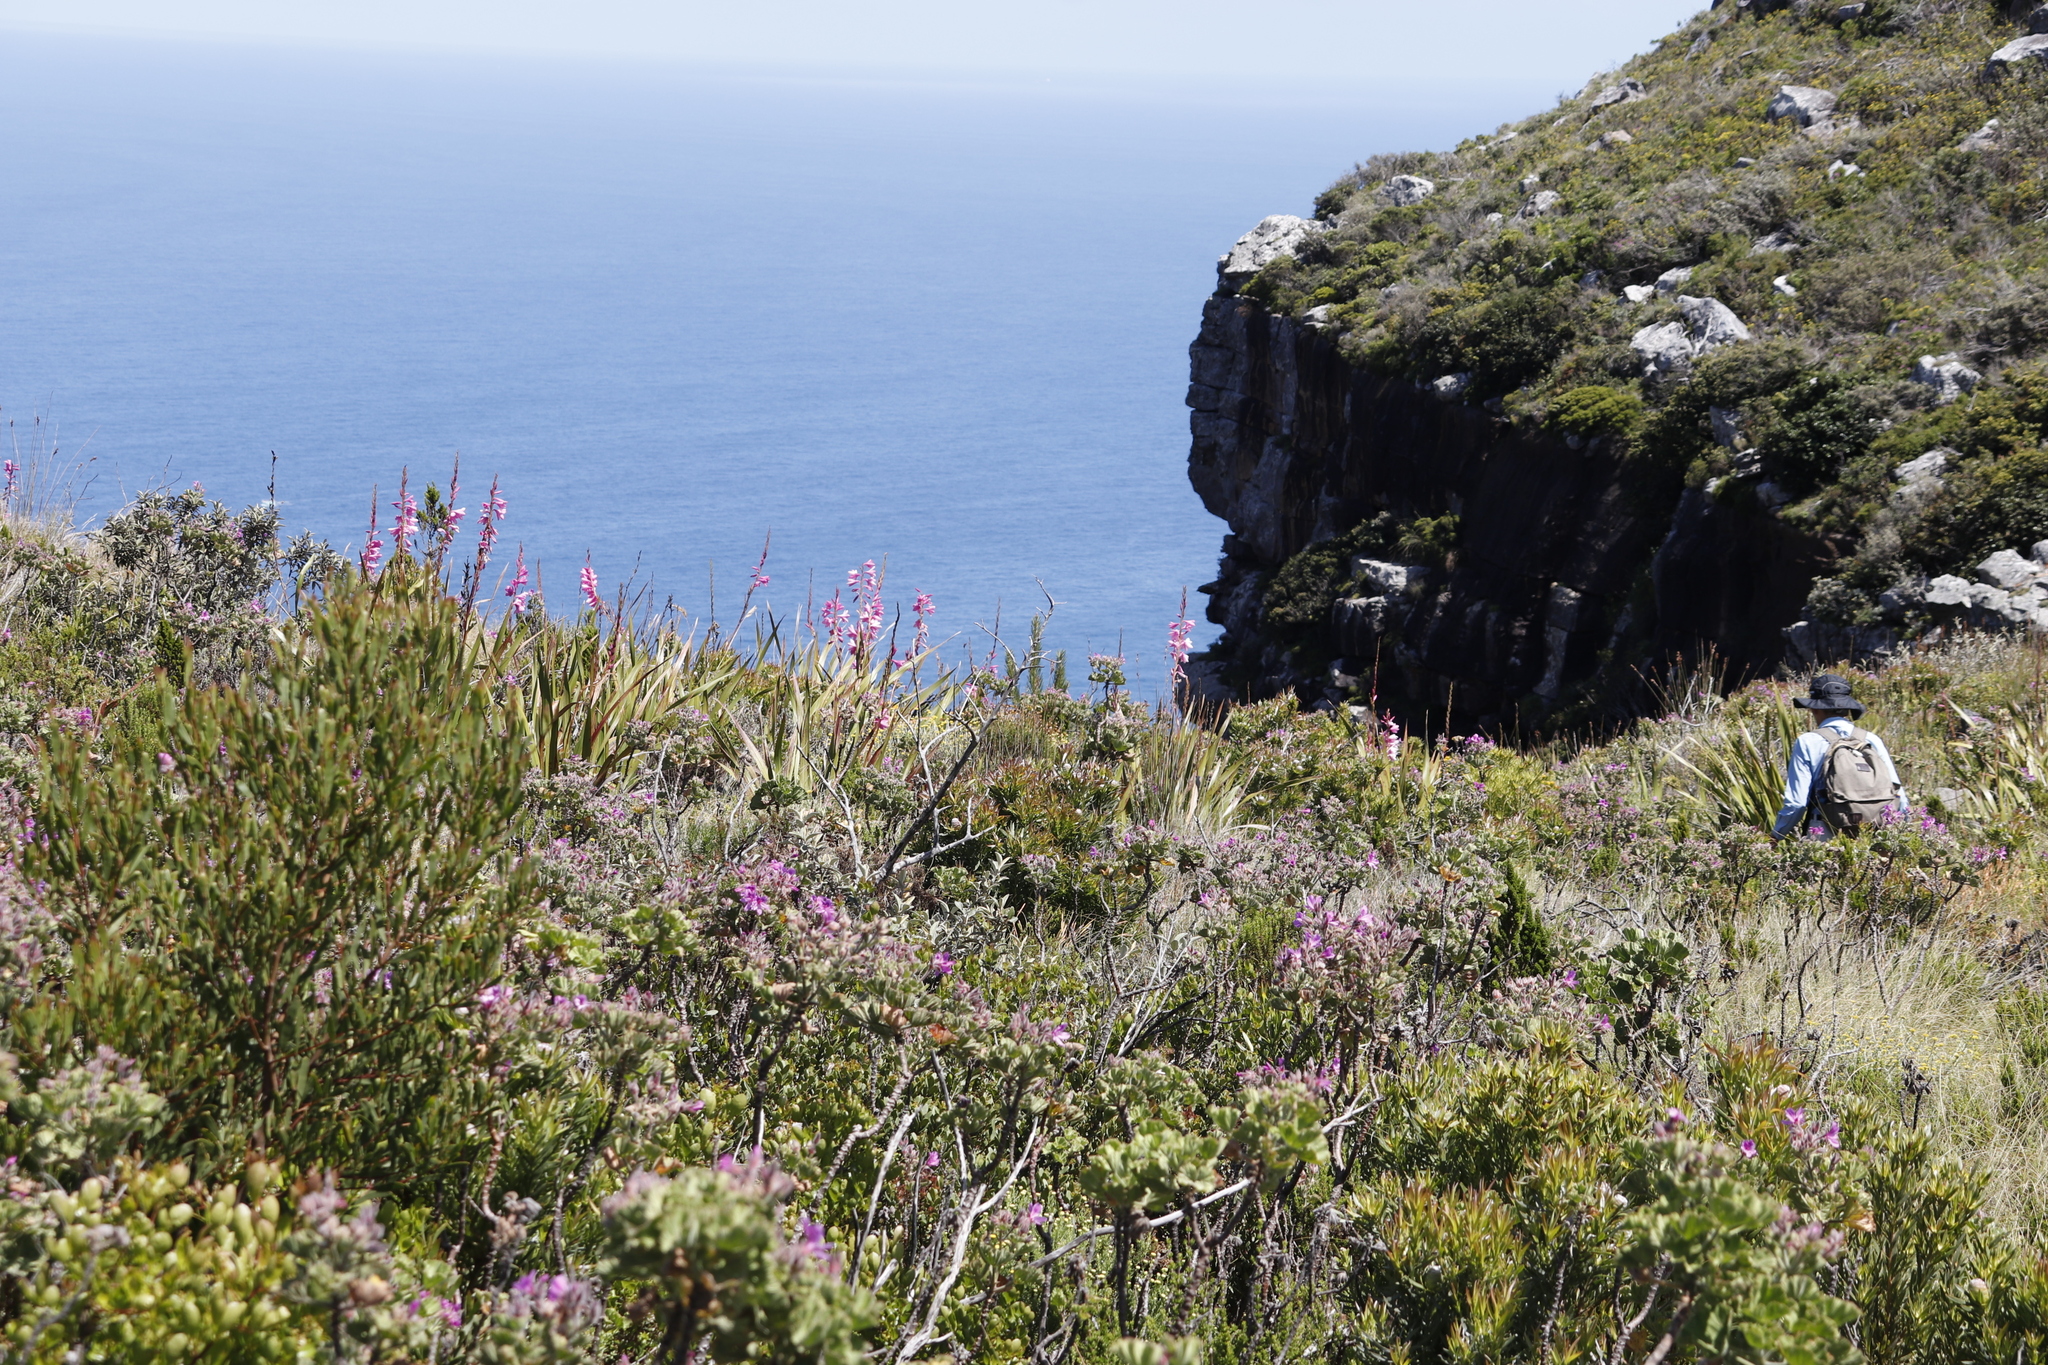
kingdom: Plantae
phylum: Tracheophyta
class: Liliopsida
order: Asparagales
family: Iridaceae
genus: Watsonia
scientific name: Watsonia borbonica
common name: Bugle-lily
